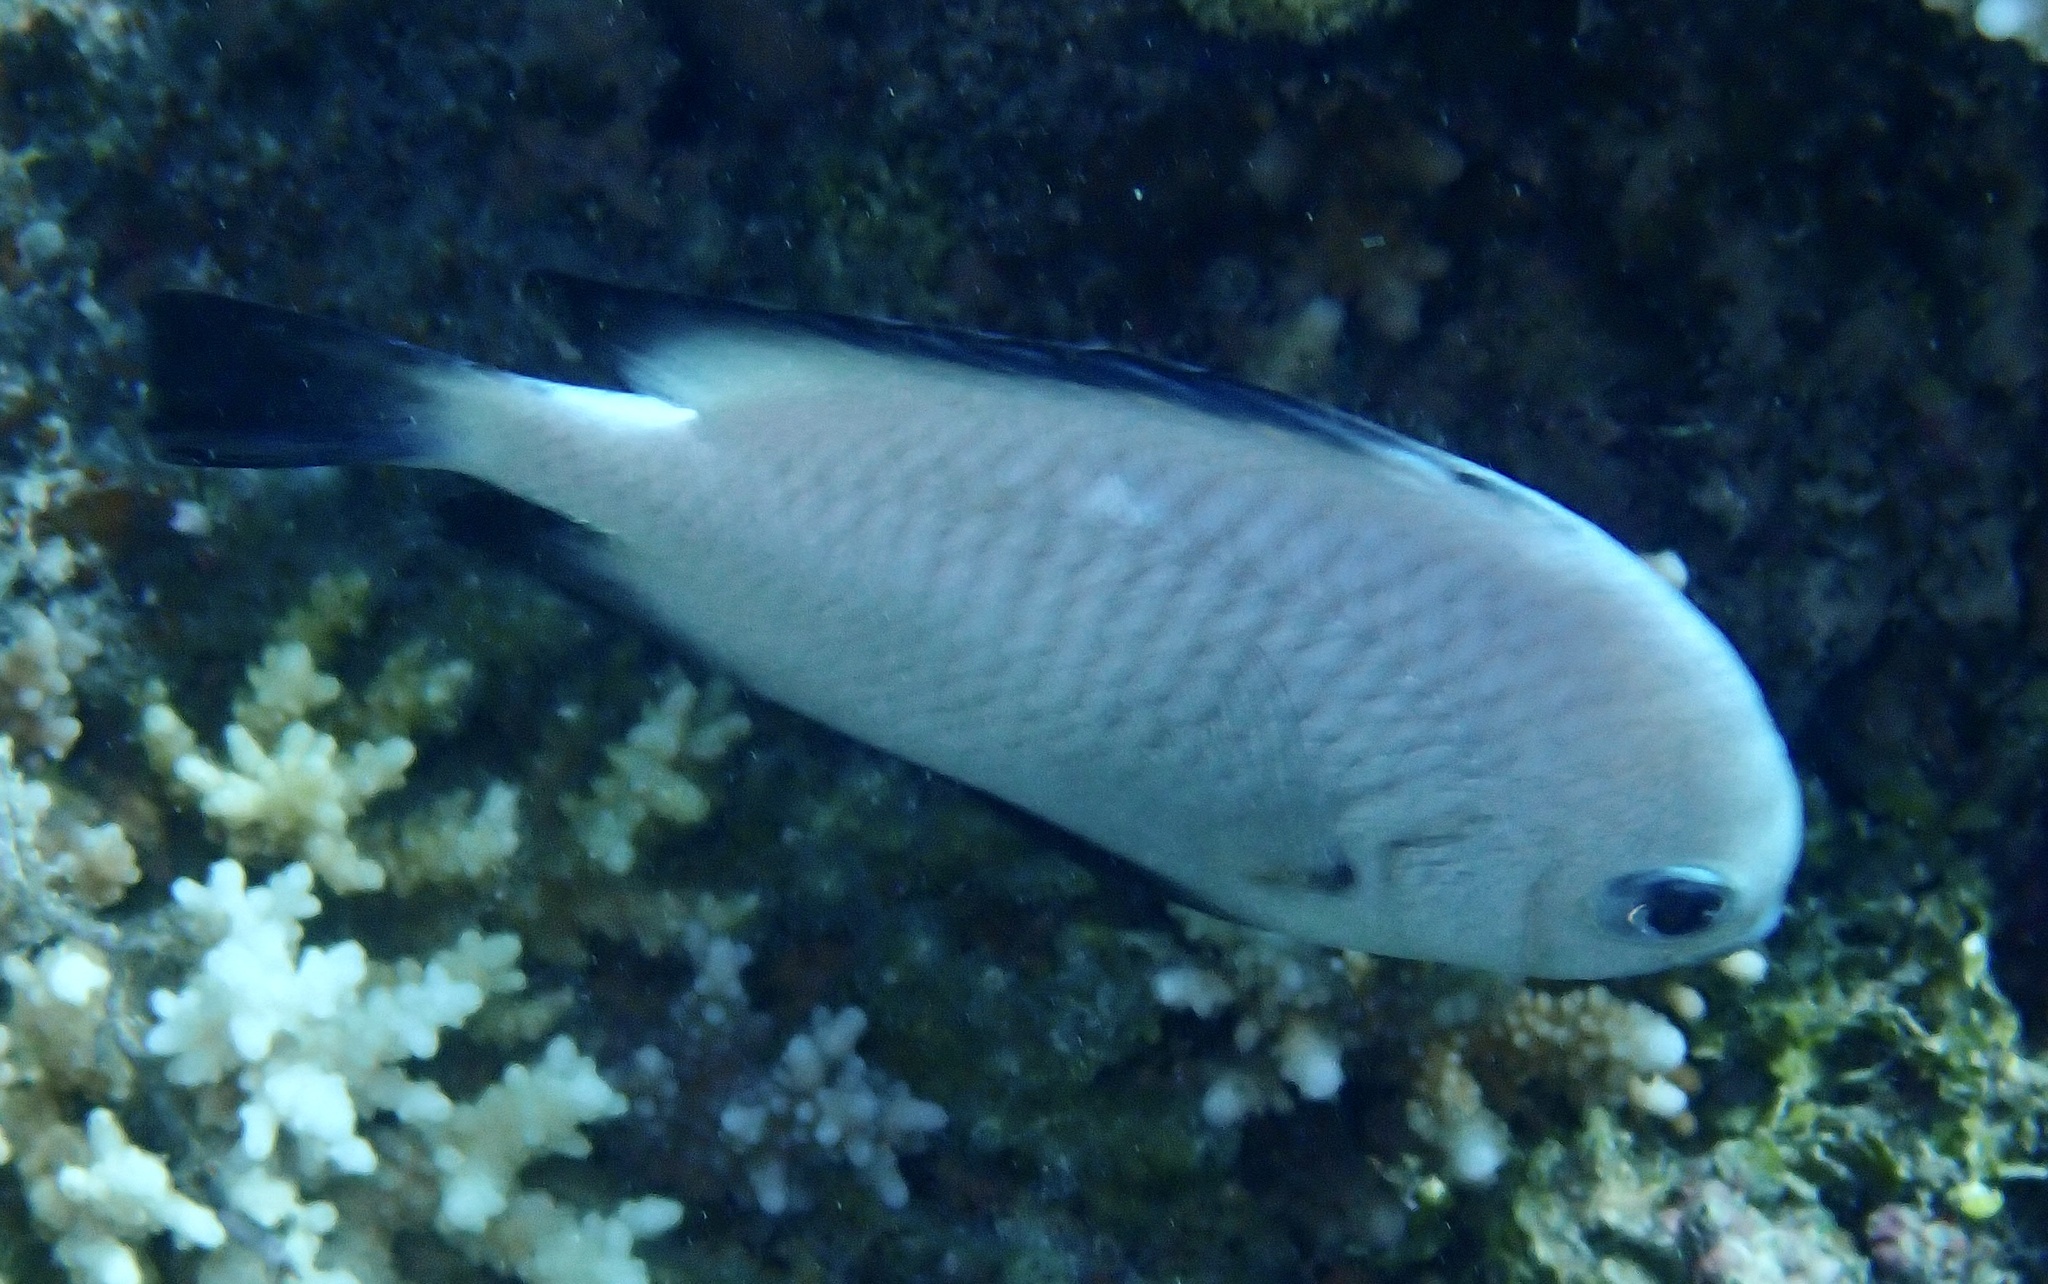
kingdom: Animalia
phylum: Chordata
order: Perciformes
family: Pomacentridae
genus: Dascyllus
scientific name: Dascyllus marginatus
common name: Red sea dascyllus
